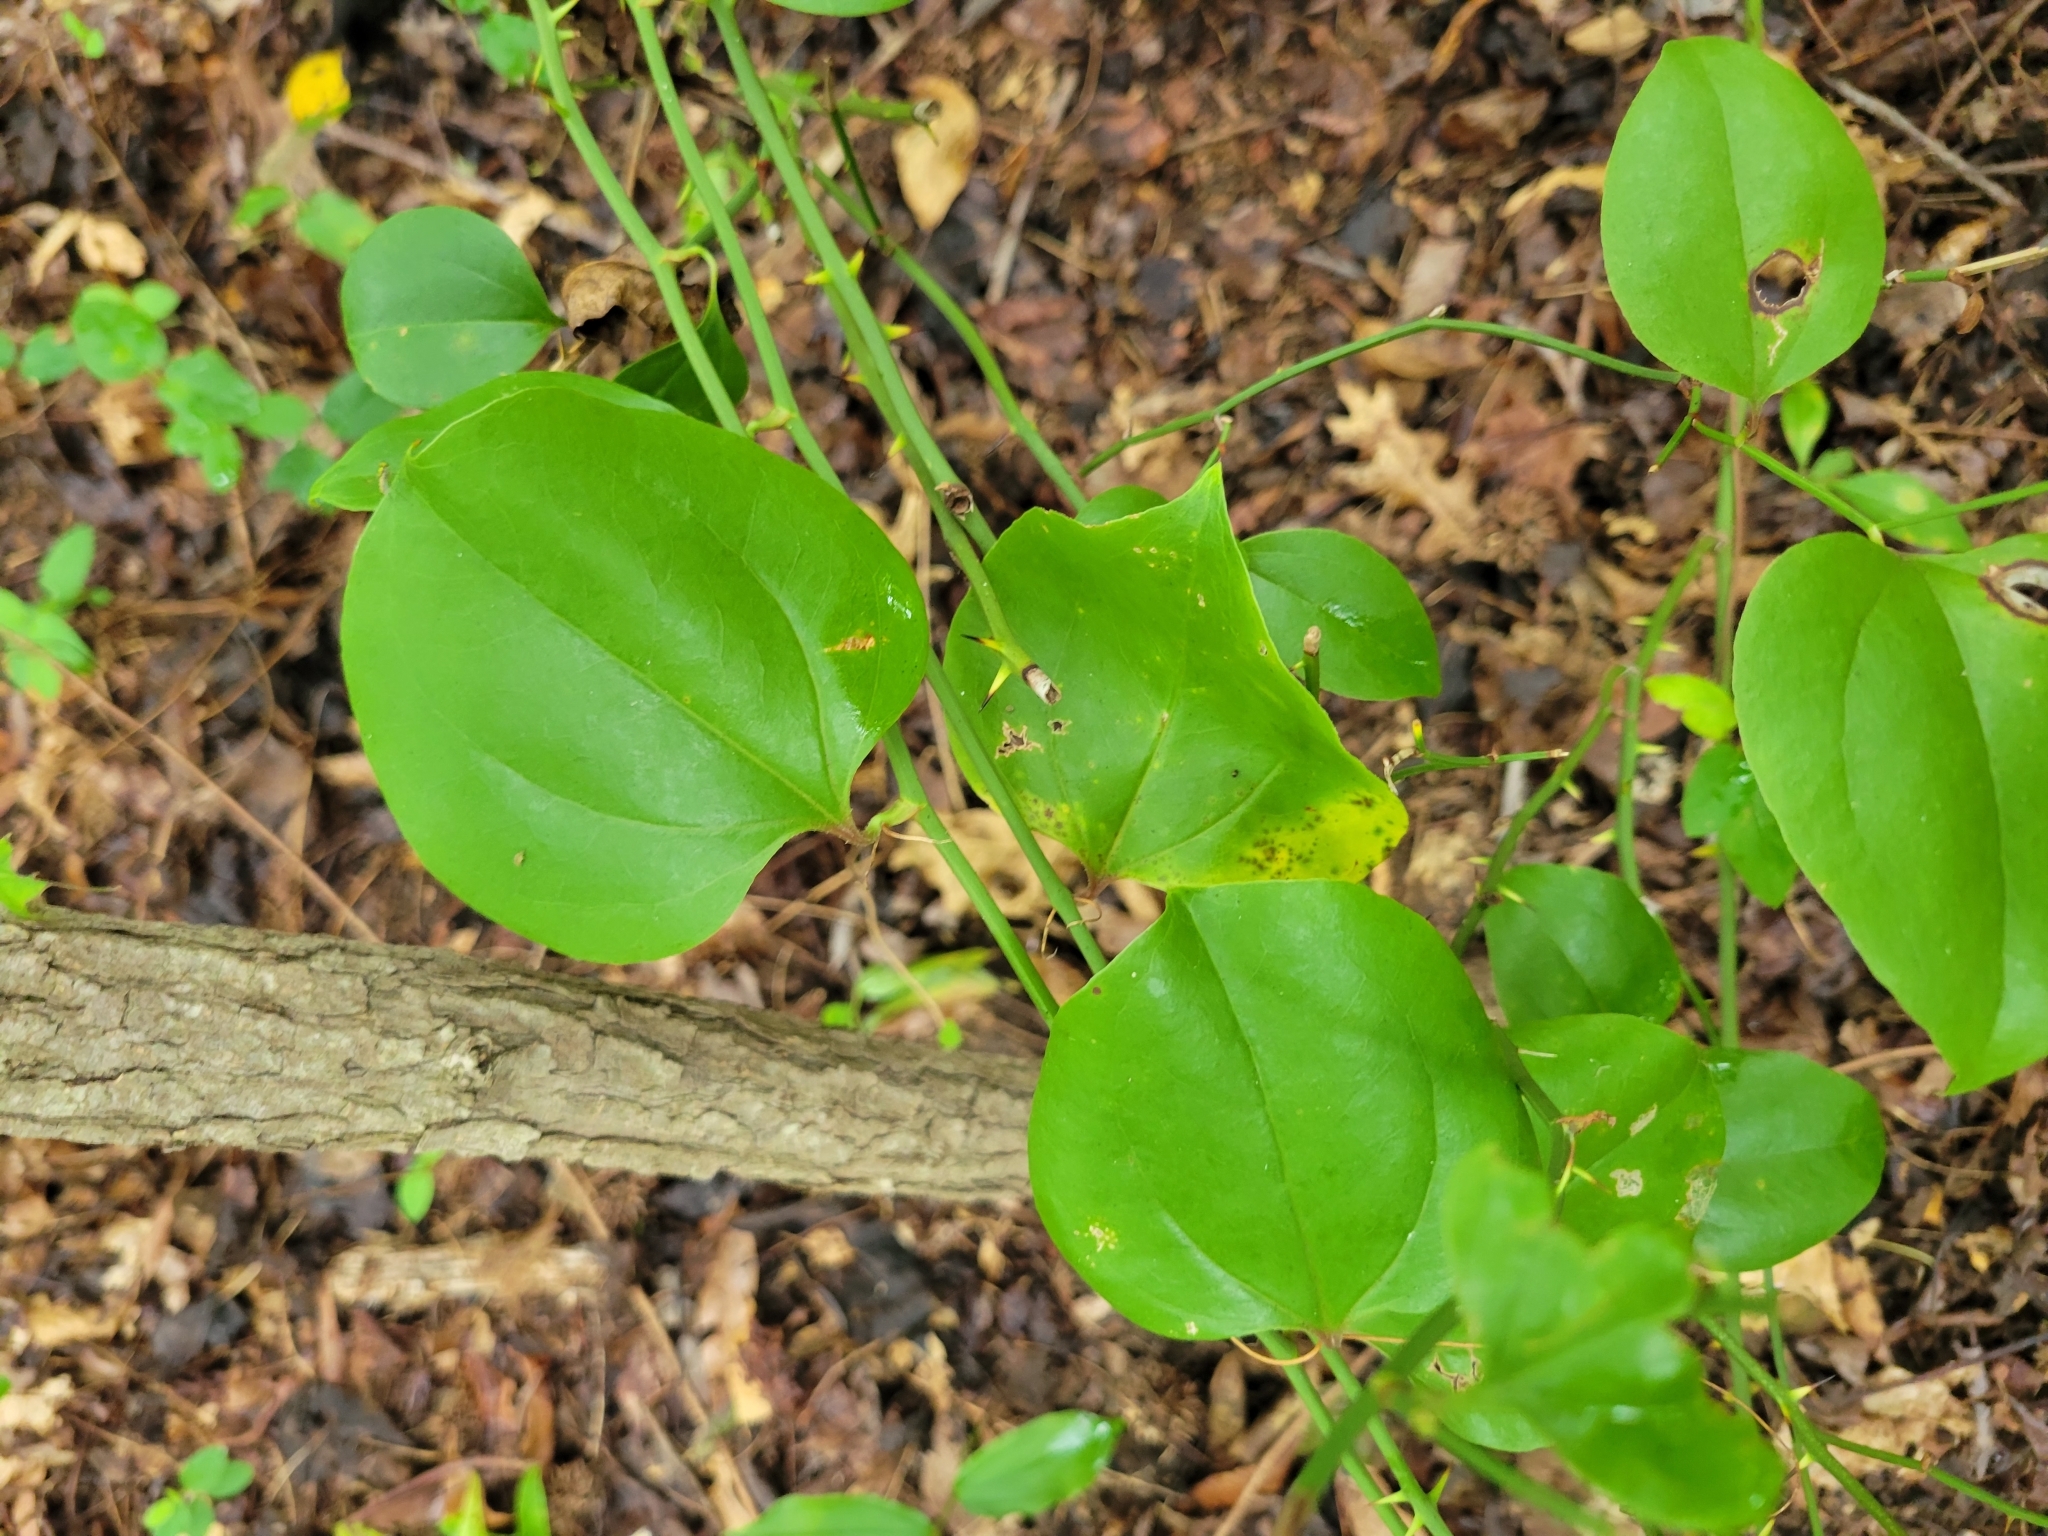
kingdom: Plantae
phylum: Tracheophyta
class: Liliopsida
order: Liliales
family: Smilacaceae
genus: Smilax
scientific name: Smilax rotundifolia
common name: Bullbriar
